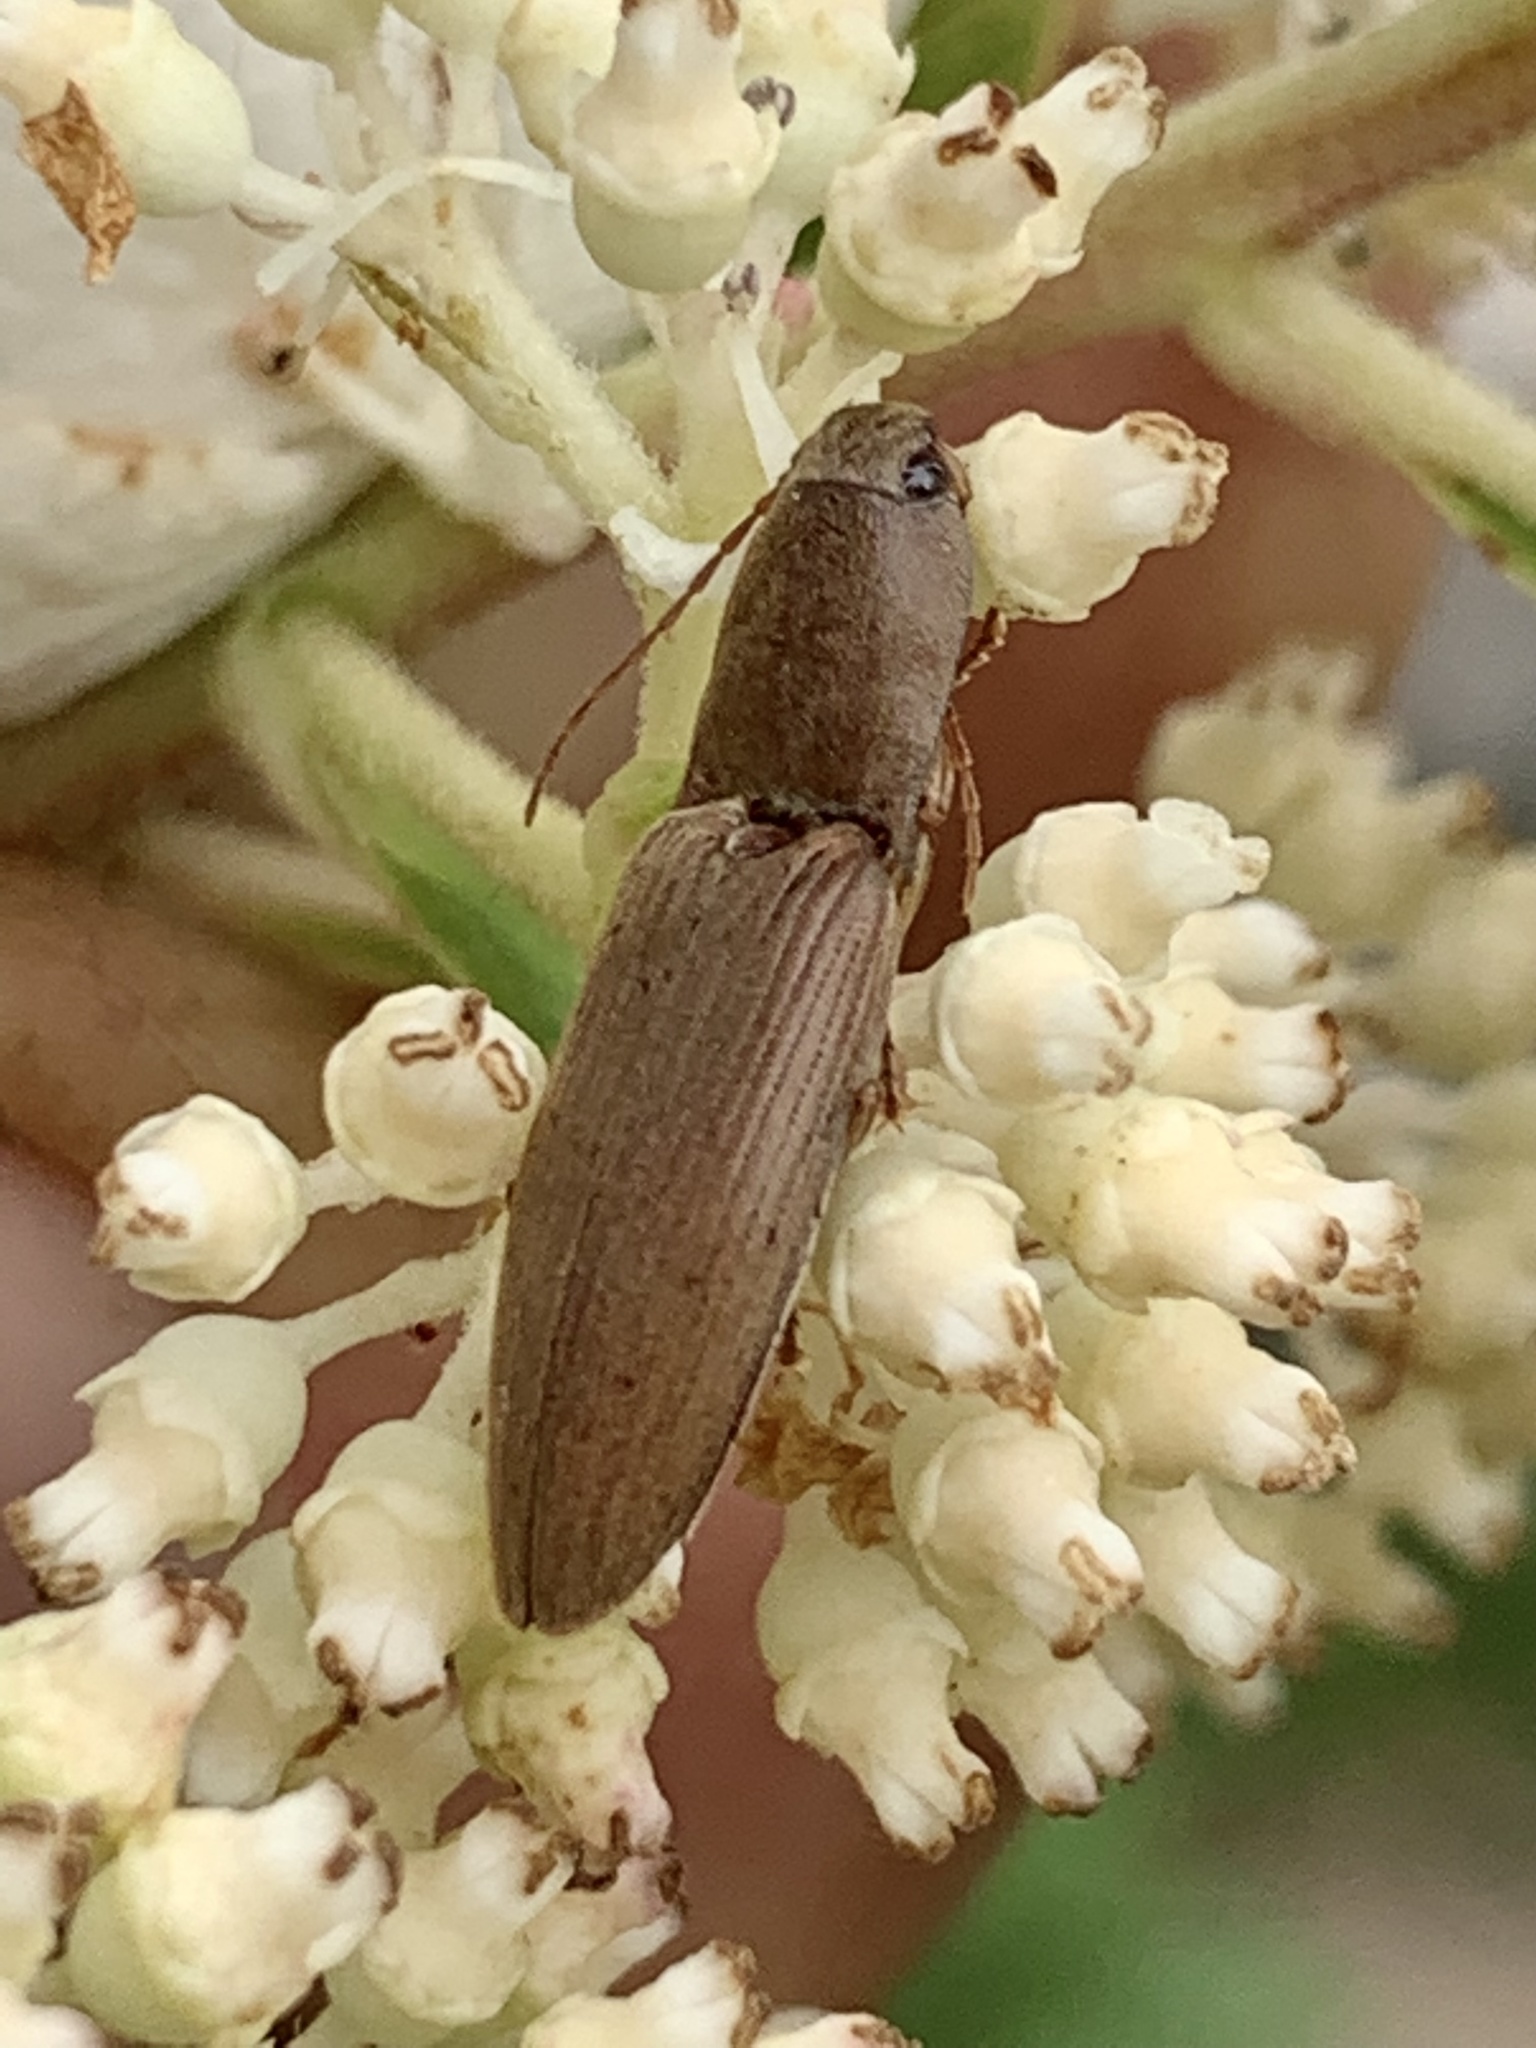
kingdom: Animalia
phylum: Arthropoda
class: Insecta
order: Coleoptera
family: Elateridae
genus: Monocrepidius
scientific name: Monocrepidius lividus
